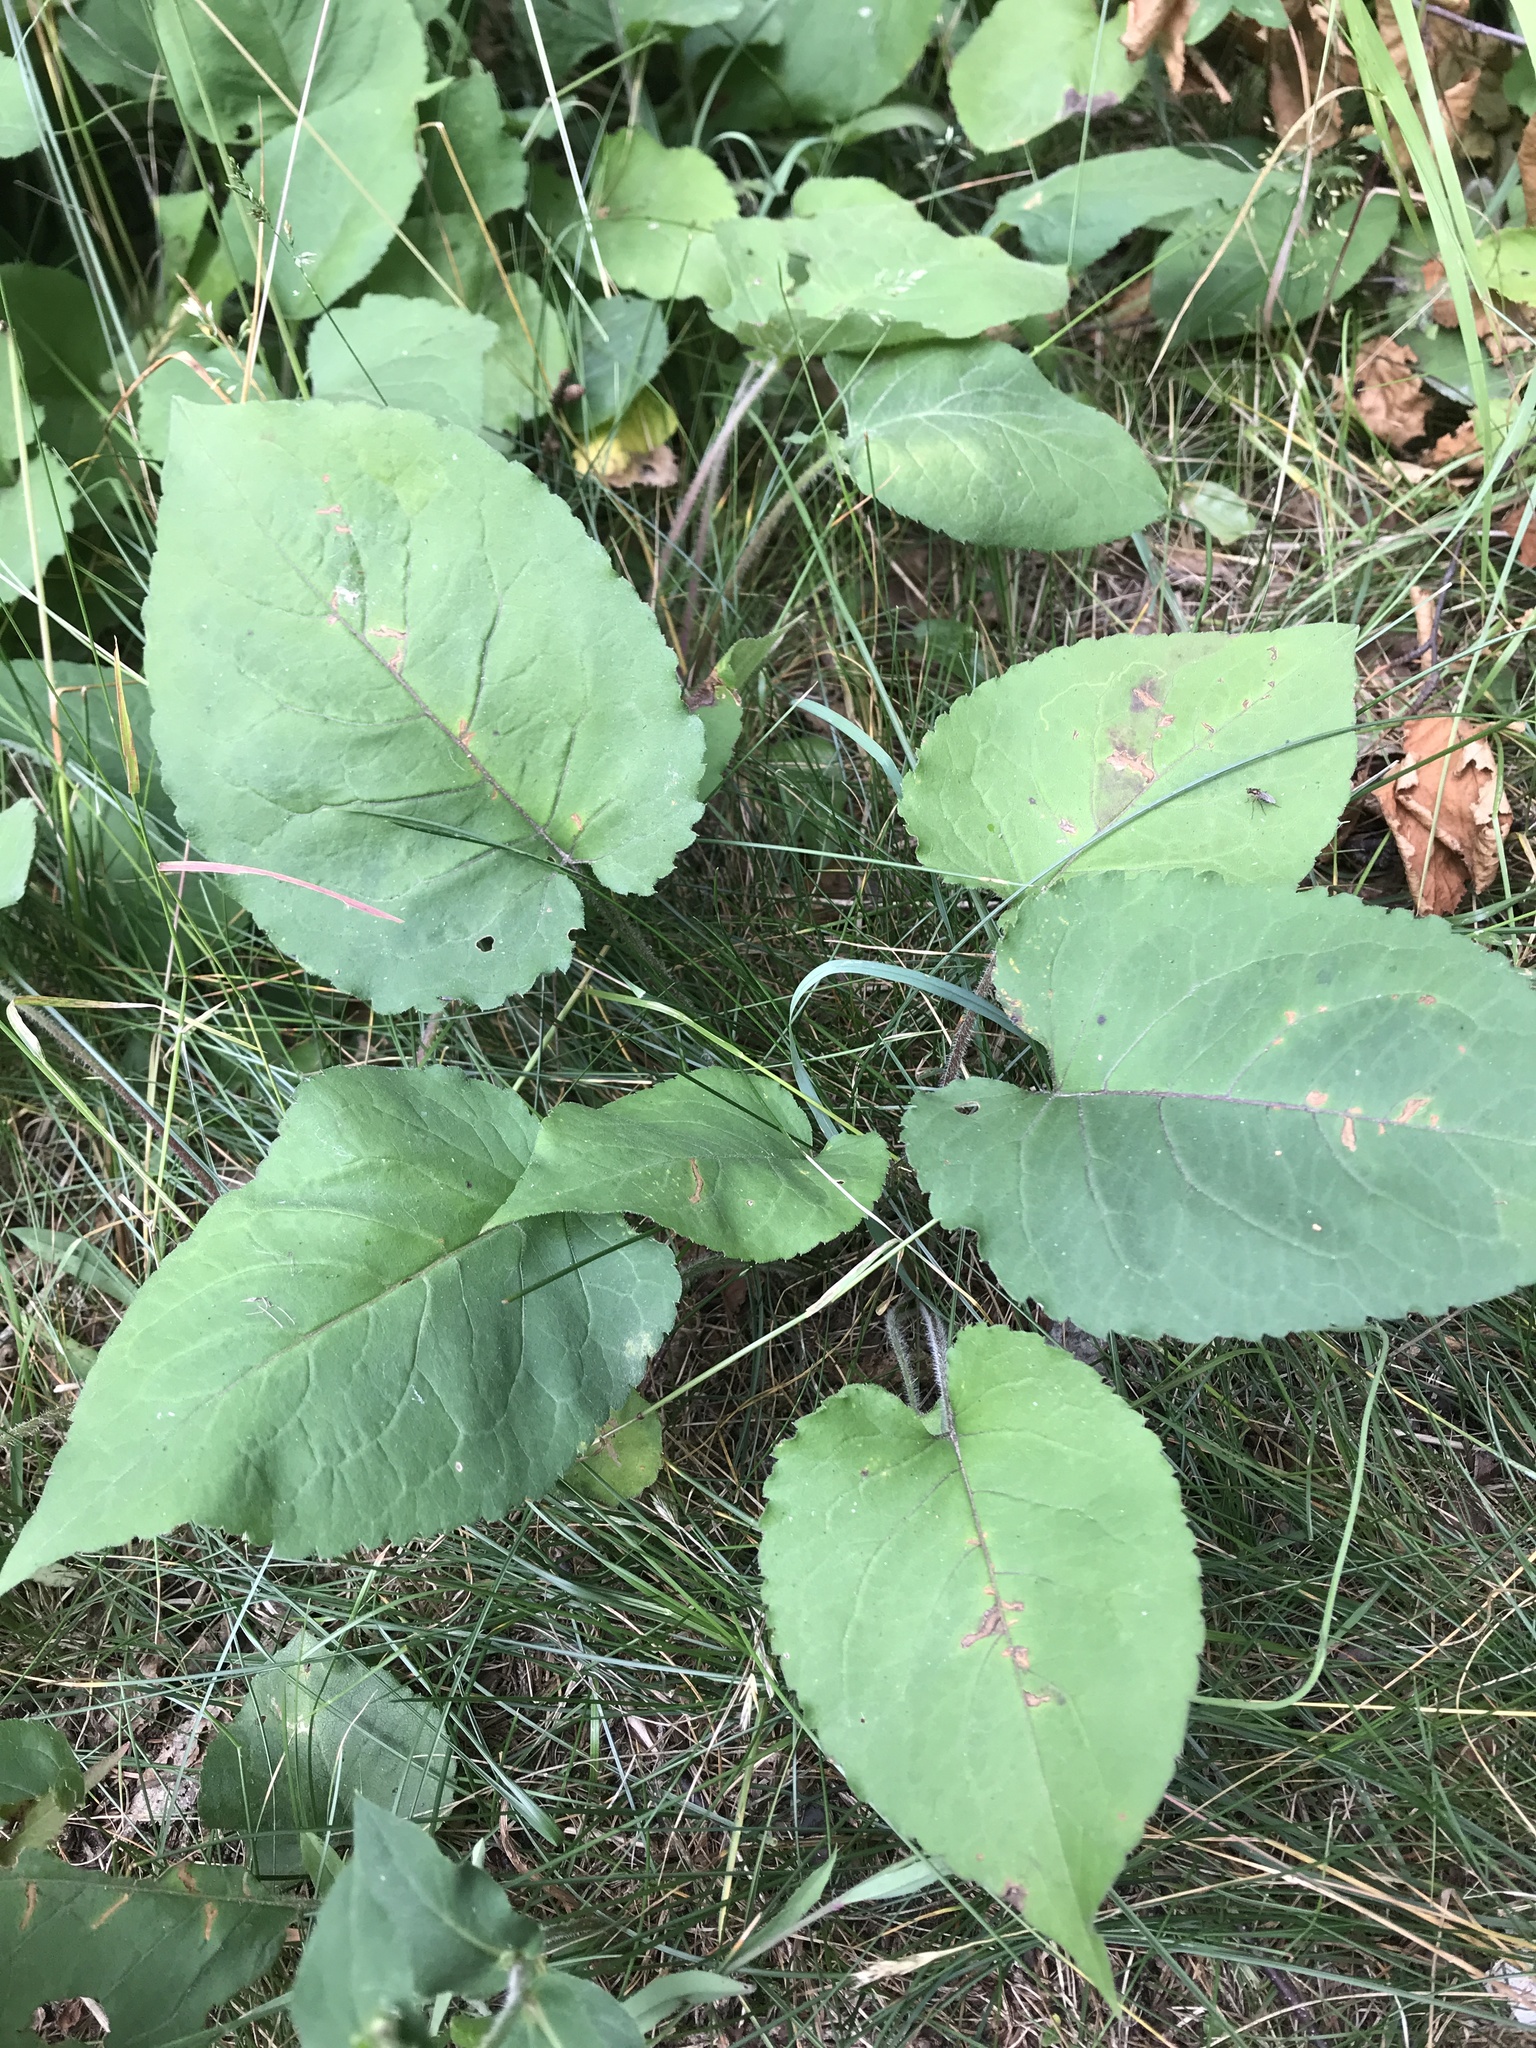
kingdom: Plantae
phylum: Tracheophyta
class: Magnoliopsida
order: Asterales
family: Asteraceae
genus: Eurybia
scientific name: Eurybia macrophylla
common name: Big-leaved aster
